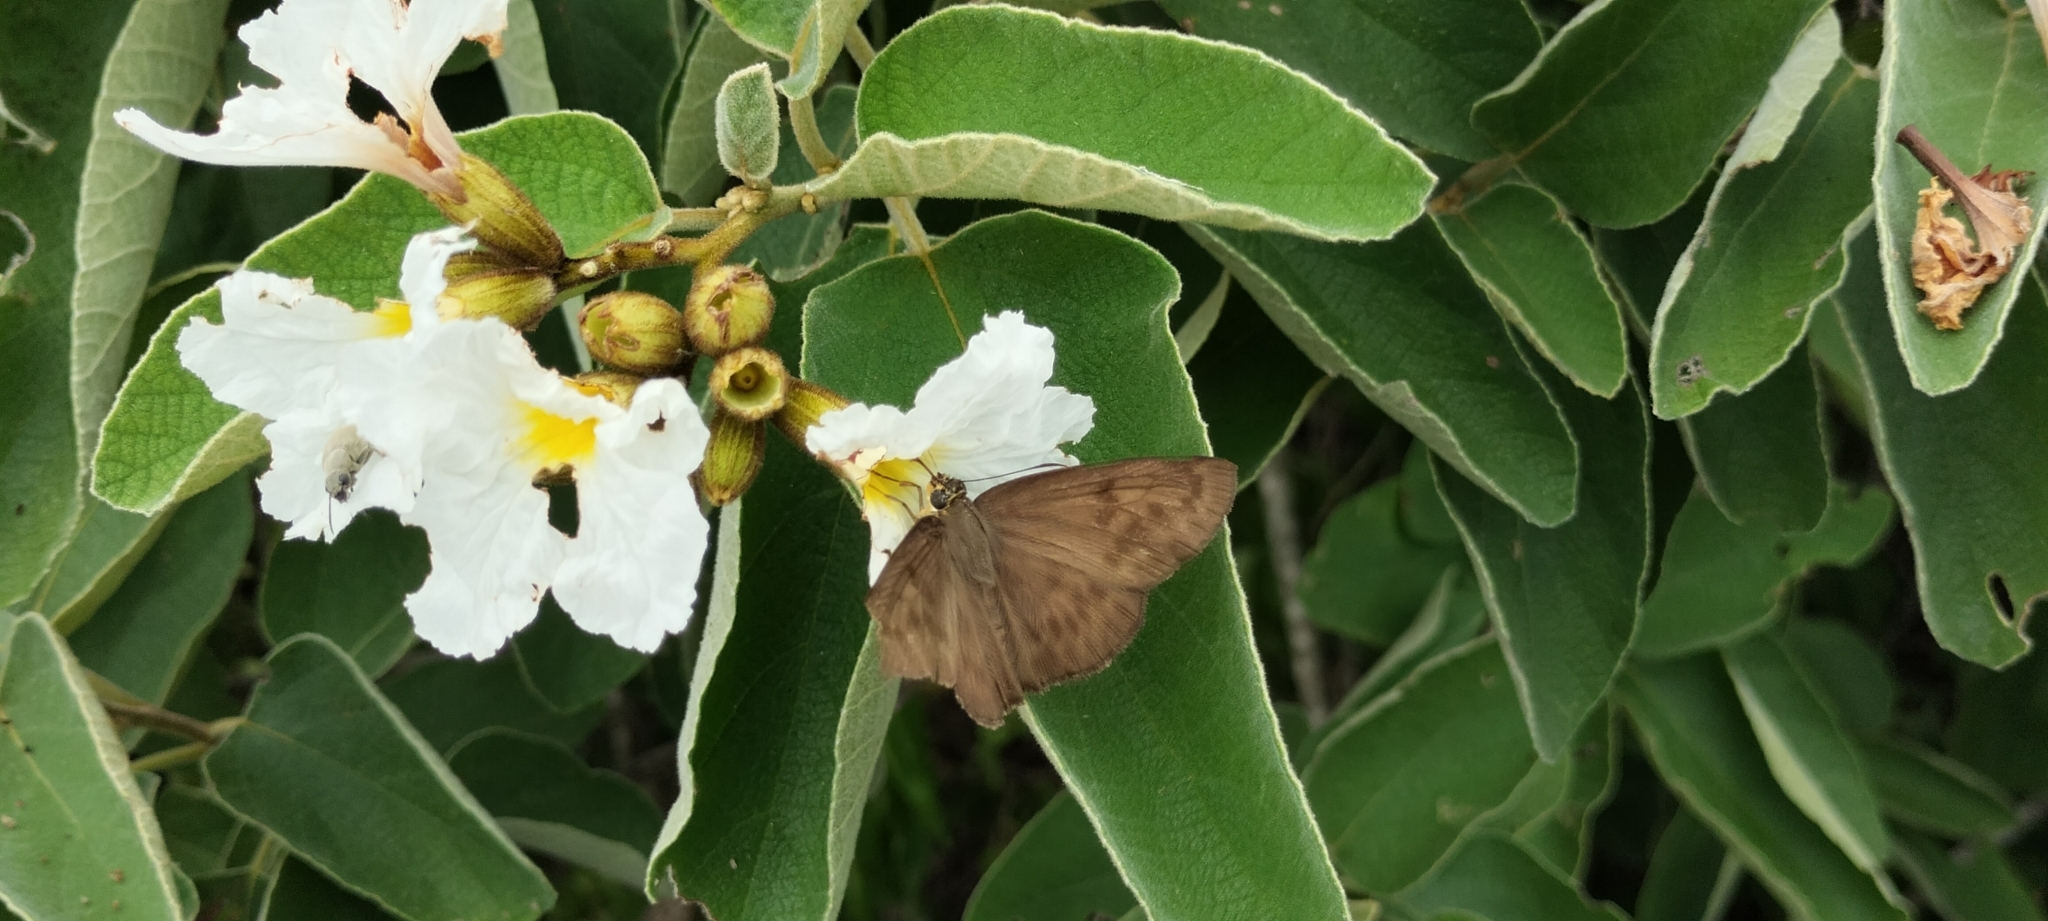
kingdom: Animalia
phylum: Arthropoda
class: Insecta
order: Lepidoptera
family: Hesperiidae
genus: Grais
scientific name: Grais stigmaticus
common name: Hermit skipper
